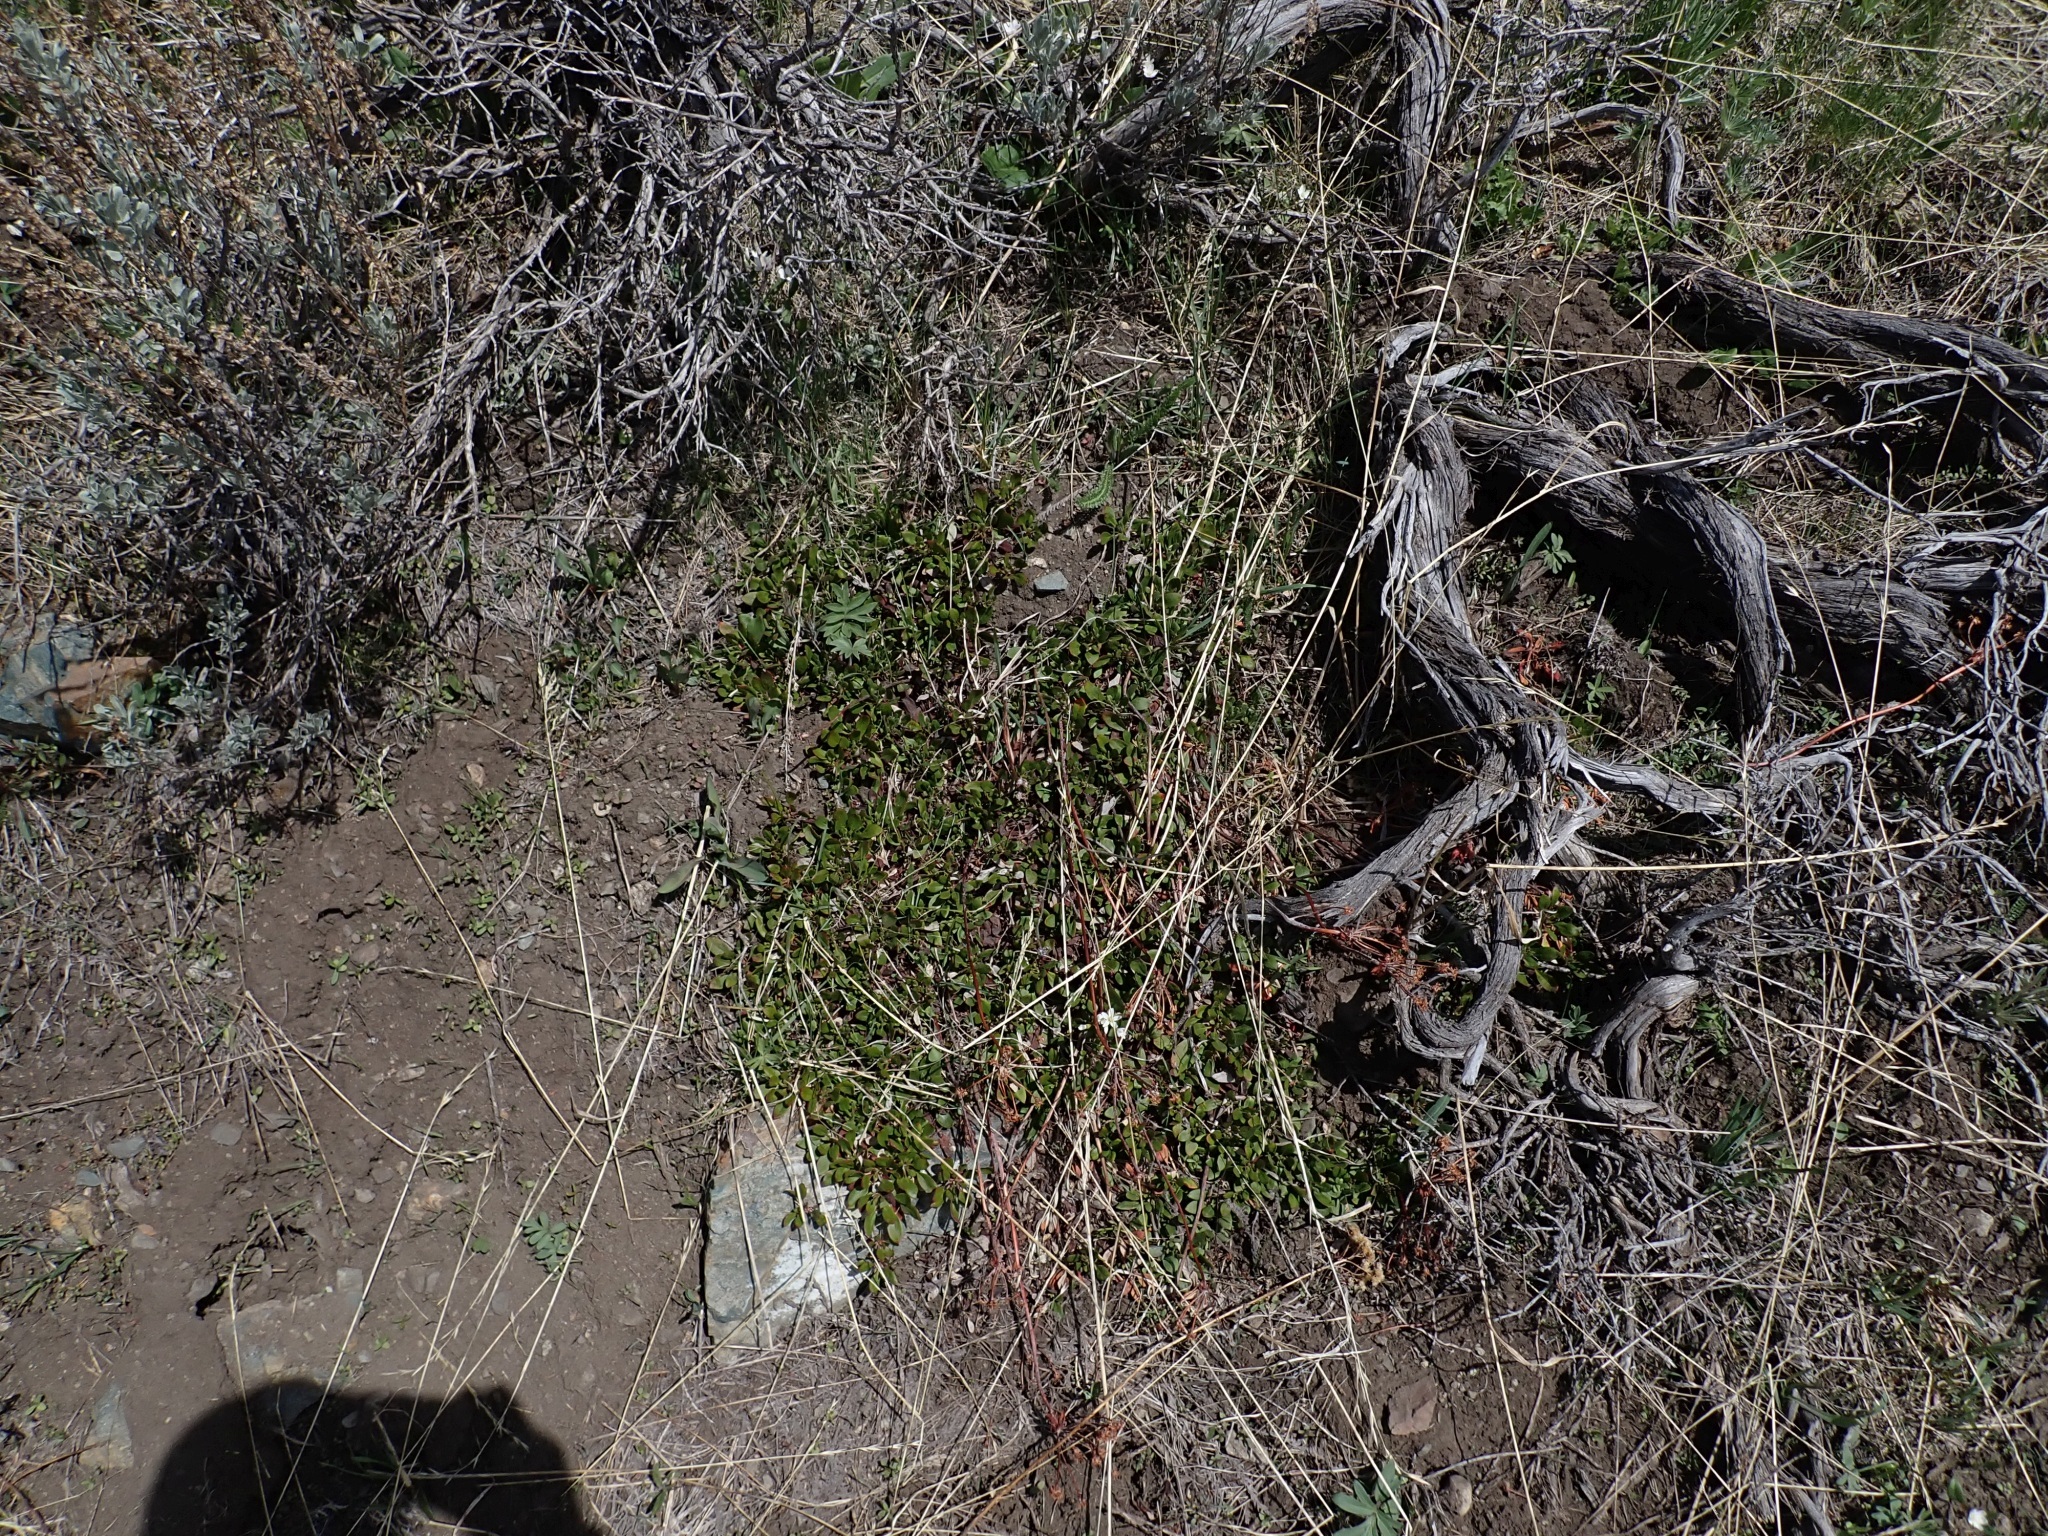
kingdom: Plantae
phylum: Tracheophyta
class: Magnoliopsida
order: Caryophyllales
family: Polygonaceae
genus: Eriogonum
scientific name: Eriogonum umbellatum
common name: Sulfur-buckwheat
